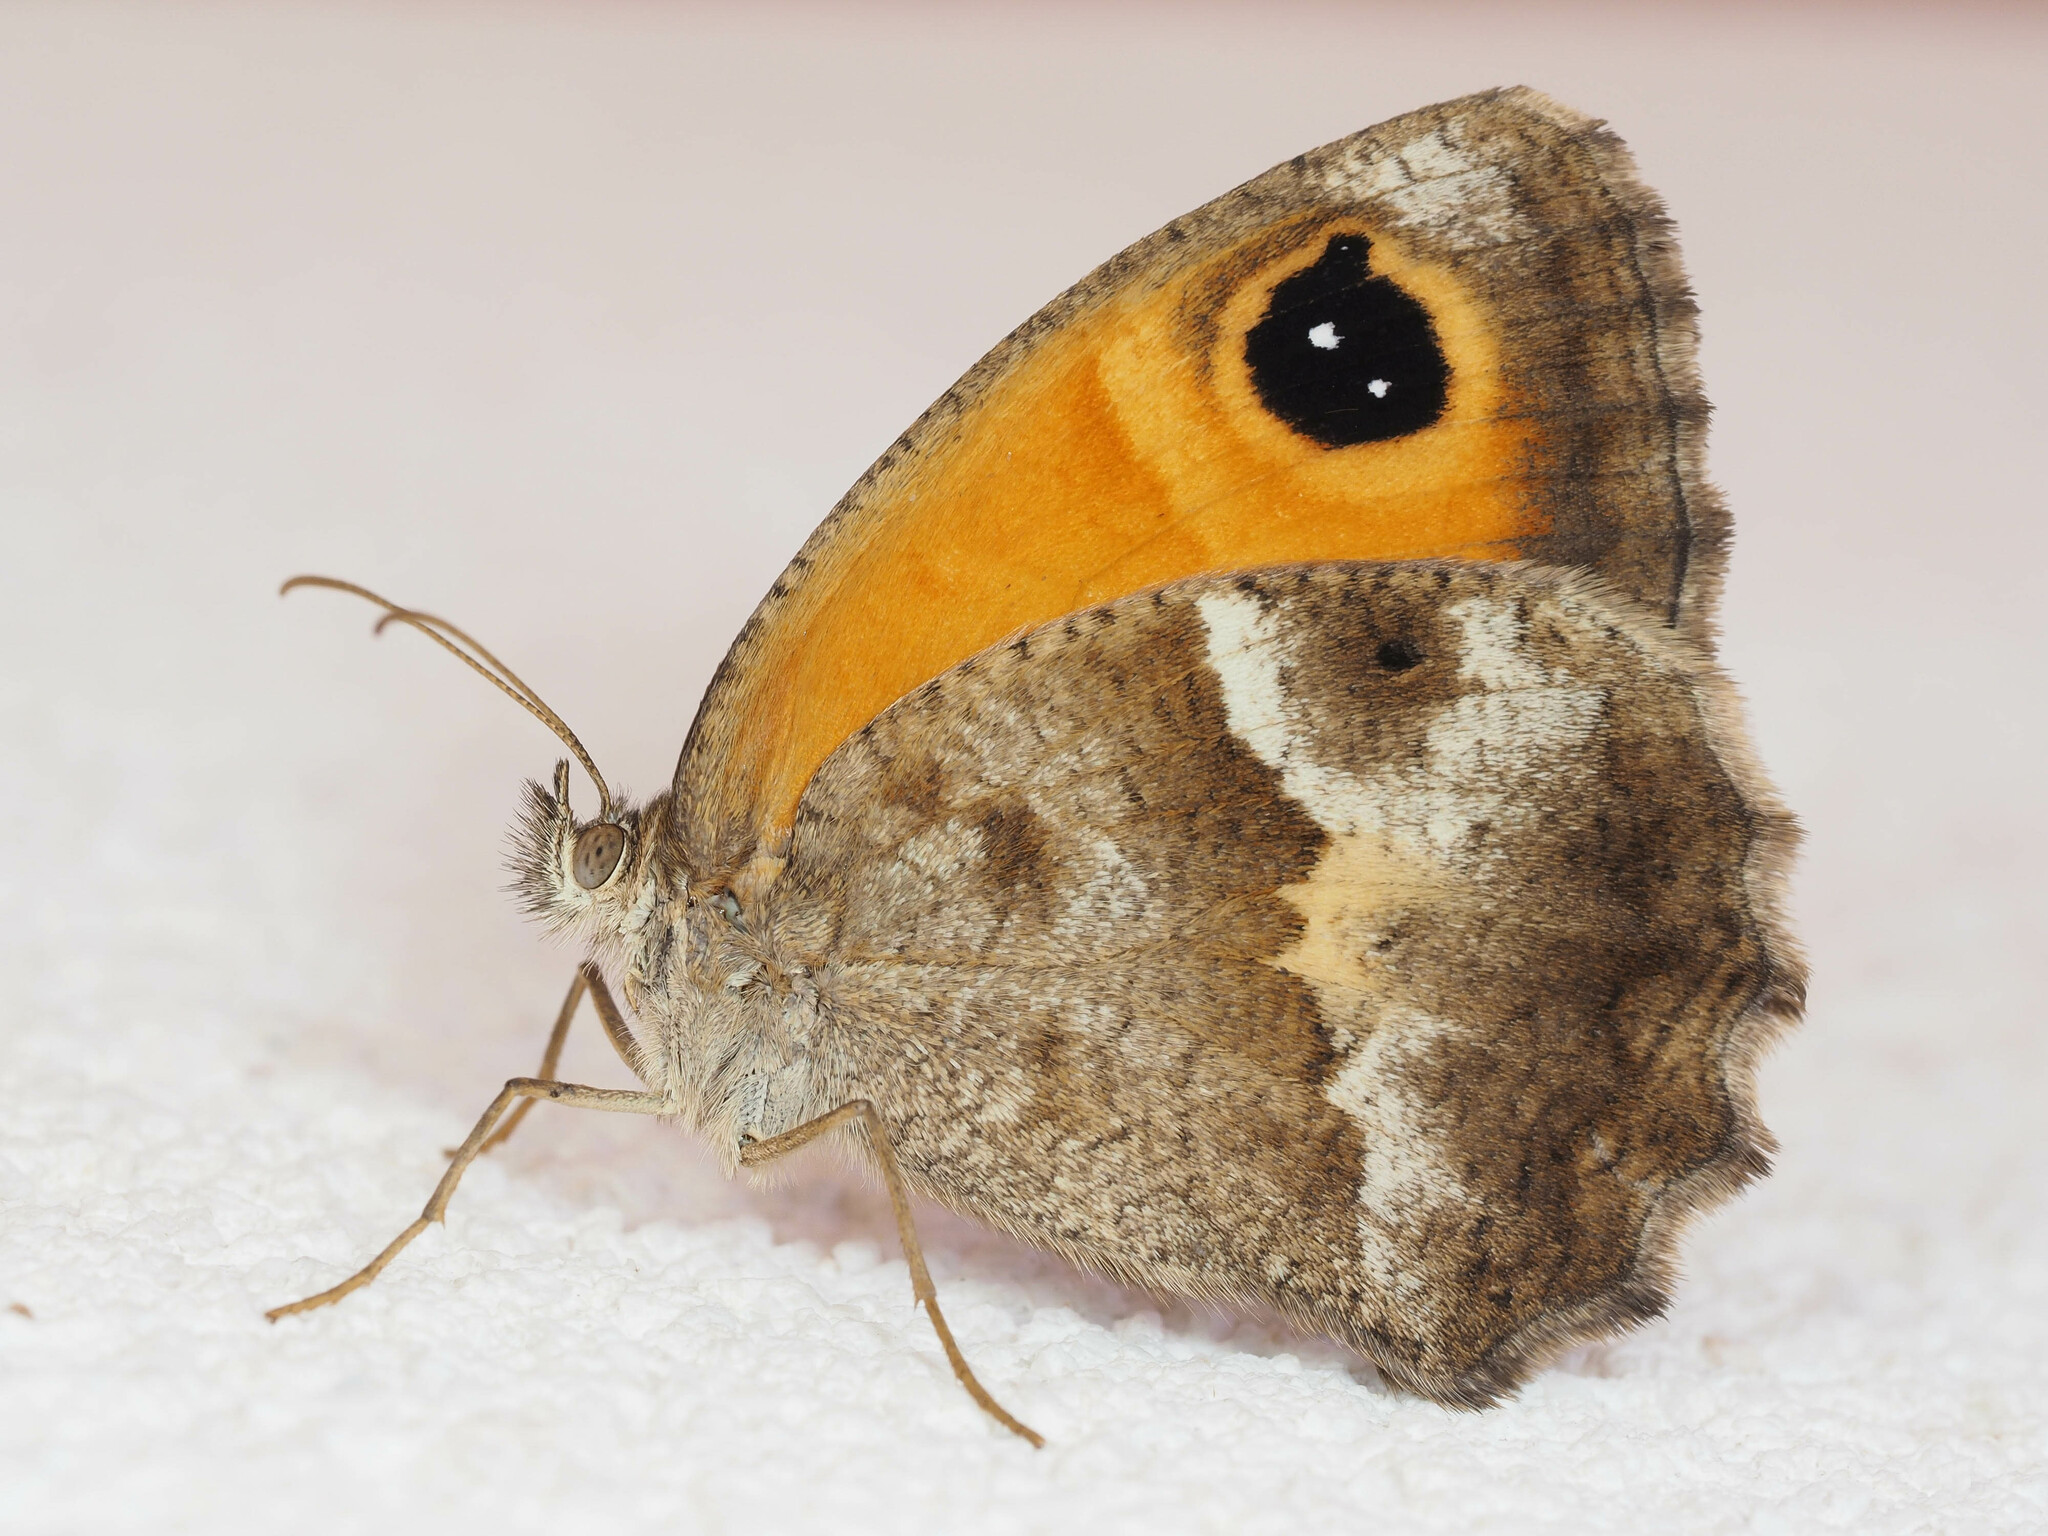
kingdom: Animalia
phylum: Arthropoda
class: Insecta
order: Lepidoptera
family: Nymphalidae
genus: Pyronia
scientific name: Pyronia cecilia
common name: Southern gatekeeper
